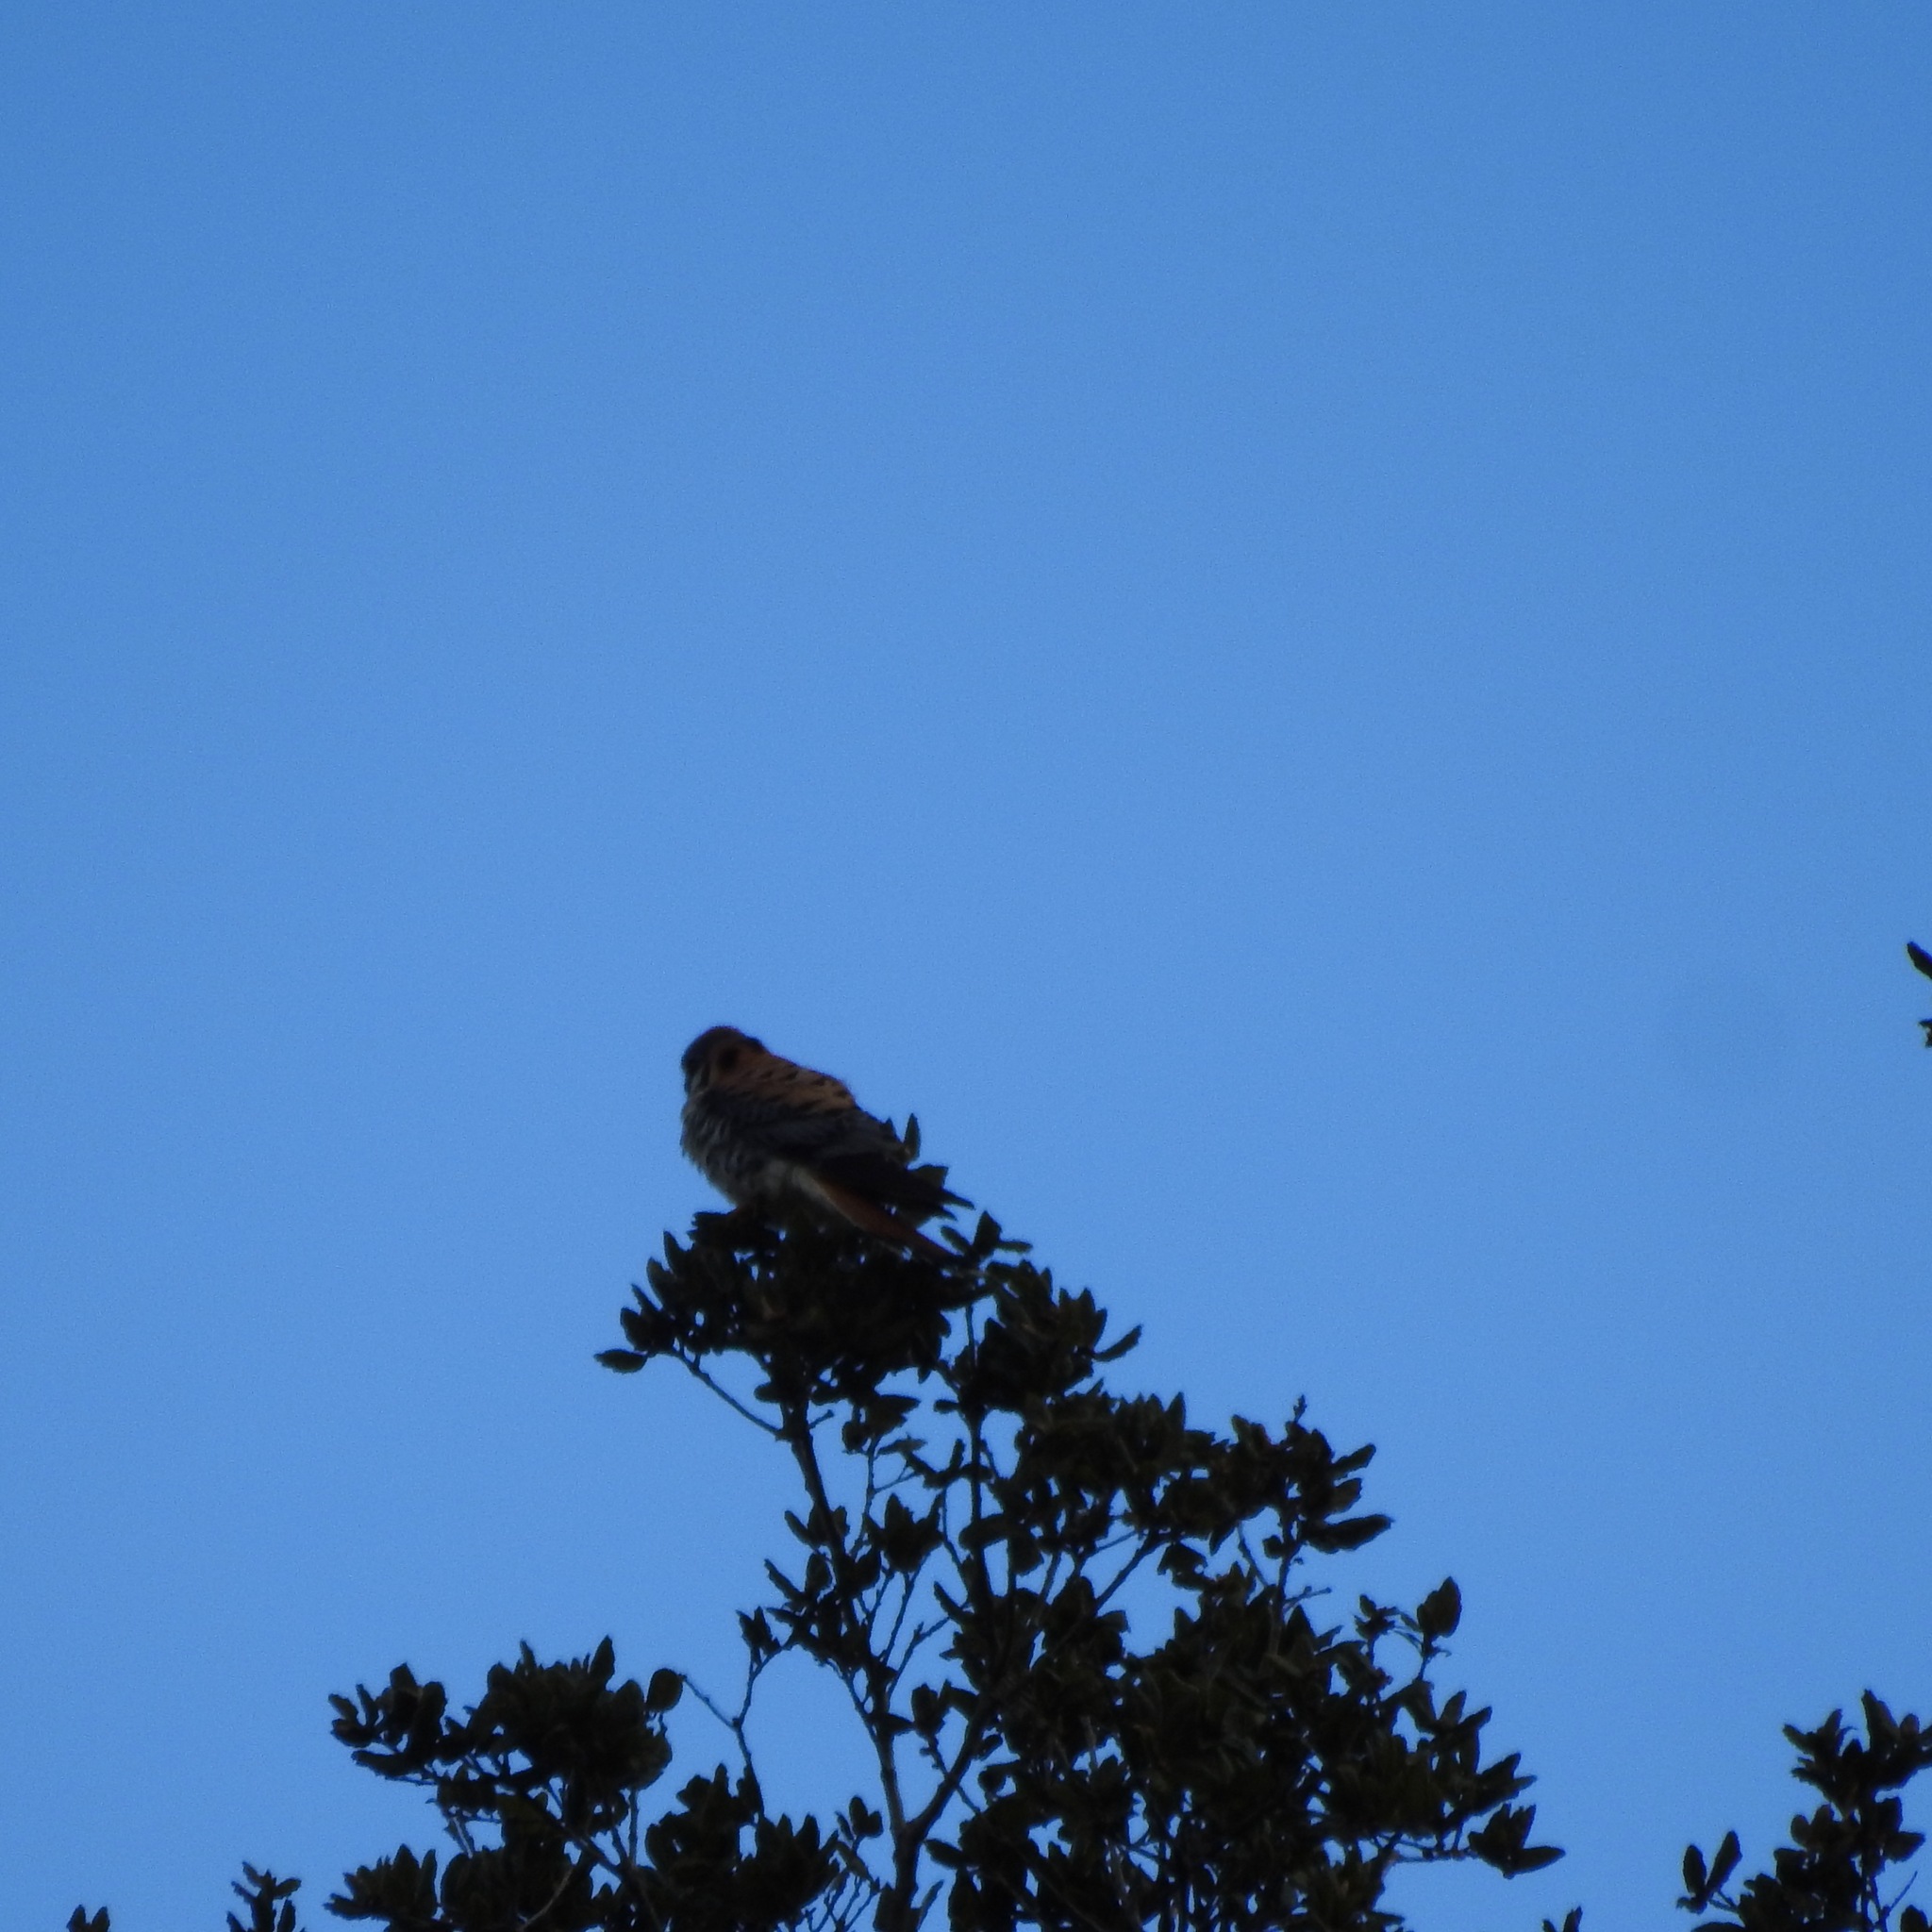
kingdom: Animalia
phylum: Chordata
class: Aves
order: Falconiformes
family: Falconidae
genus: Falco
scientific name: Falco sparverius
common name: American kestrel
